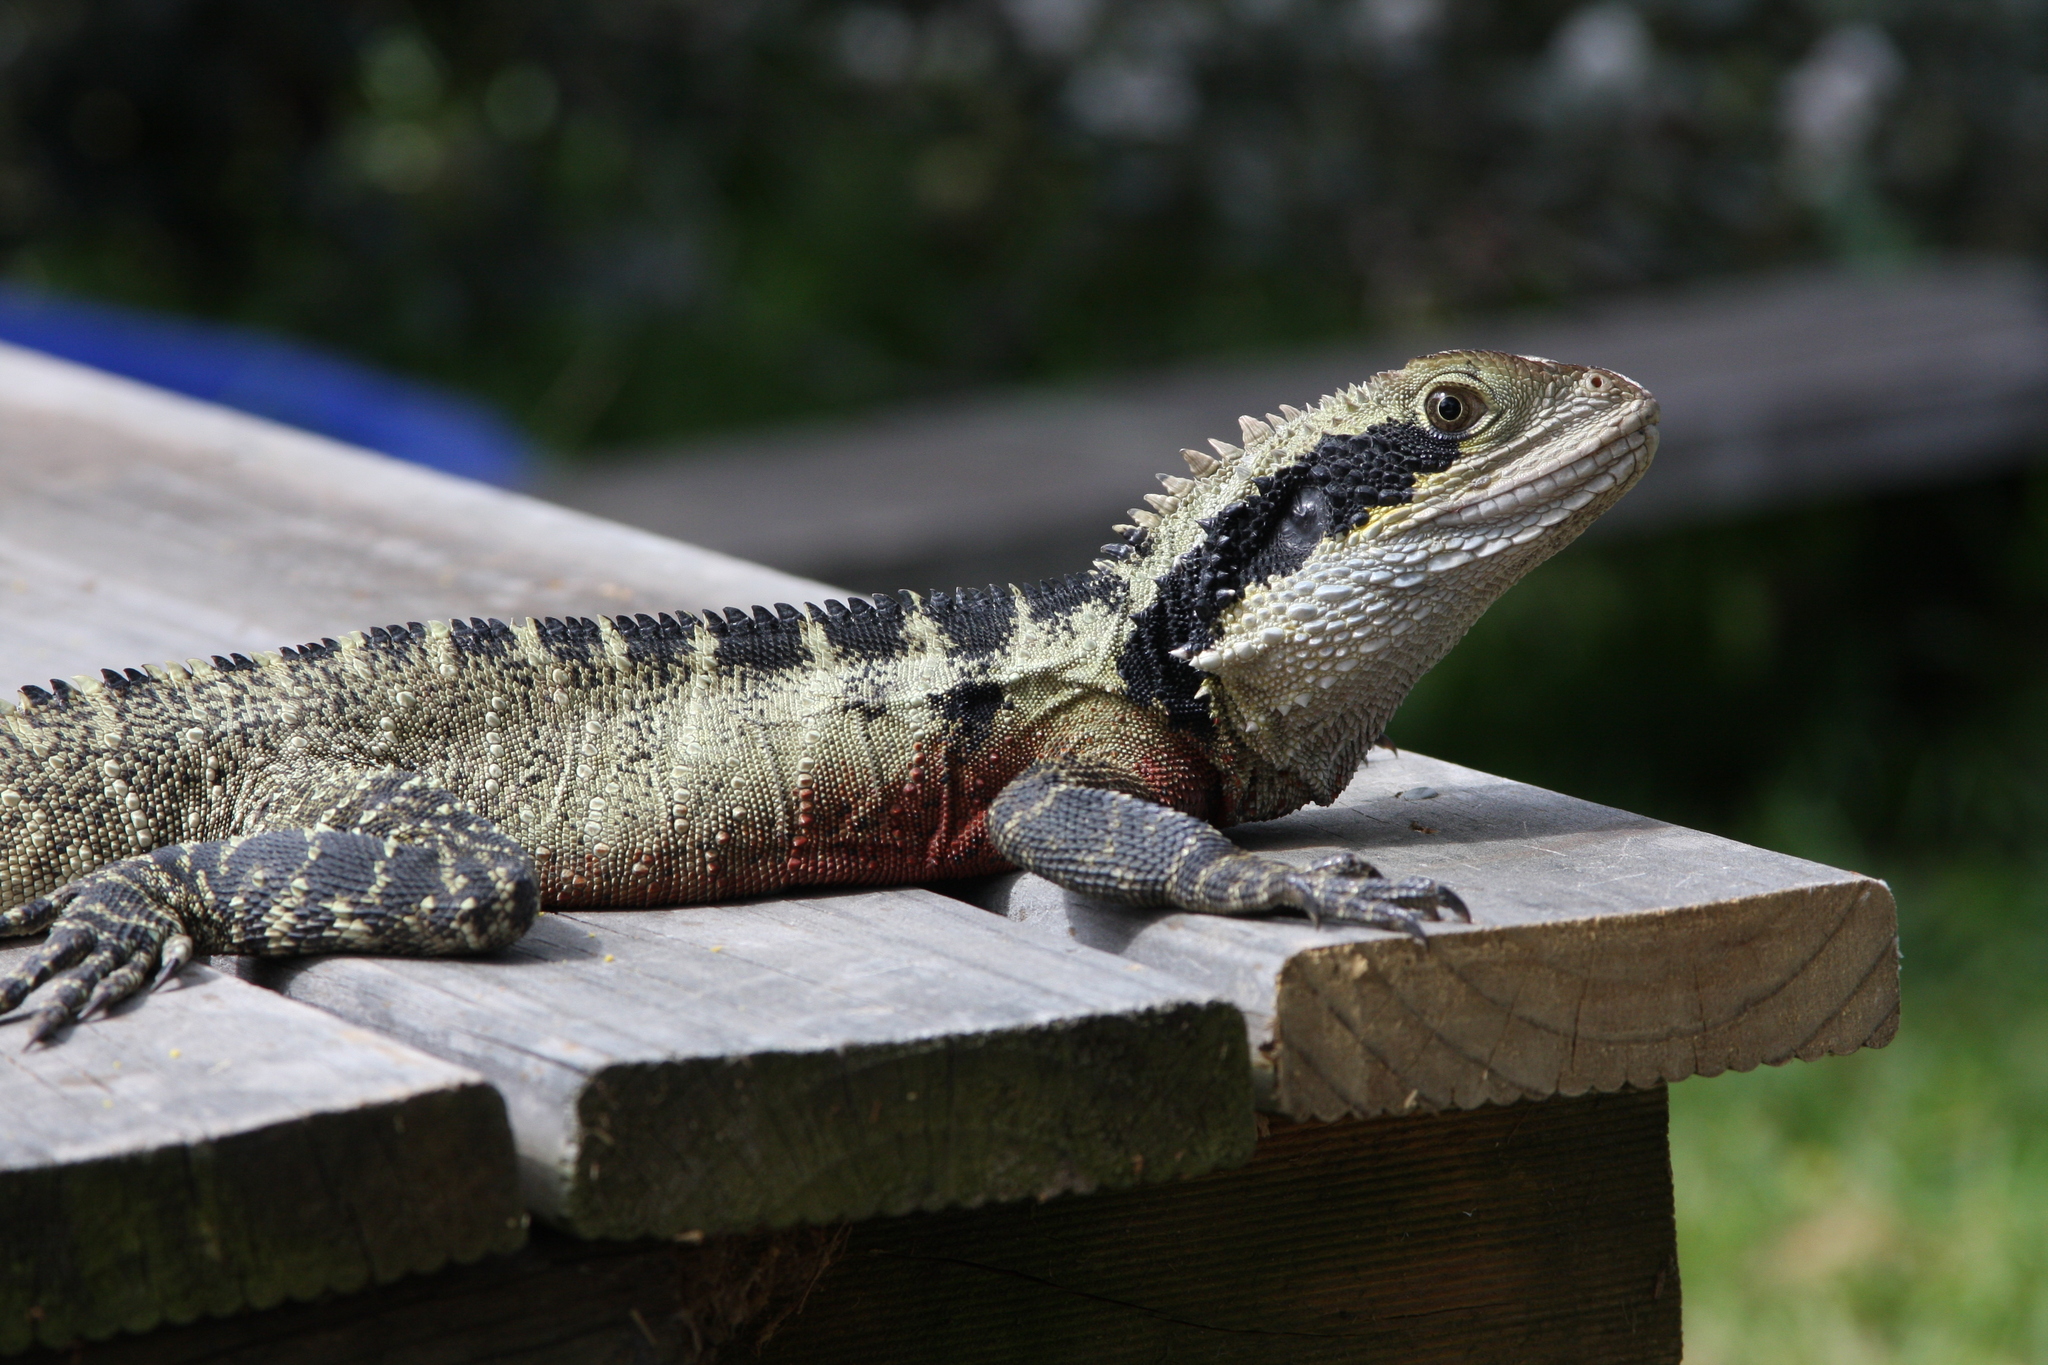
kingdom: Animalia
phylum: Chordata
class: Squamata
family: Agamidae
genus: Intellagama
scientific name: Intellagama lesueurii
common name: Eastern water dragon
